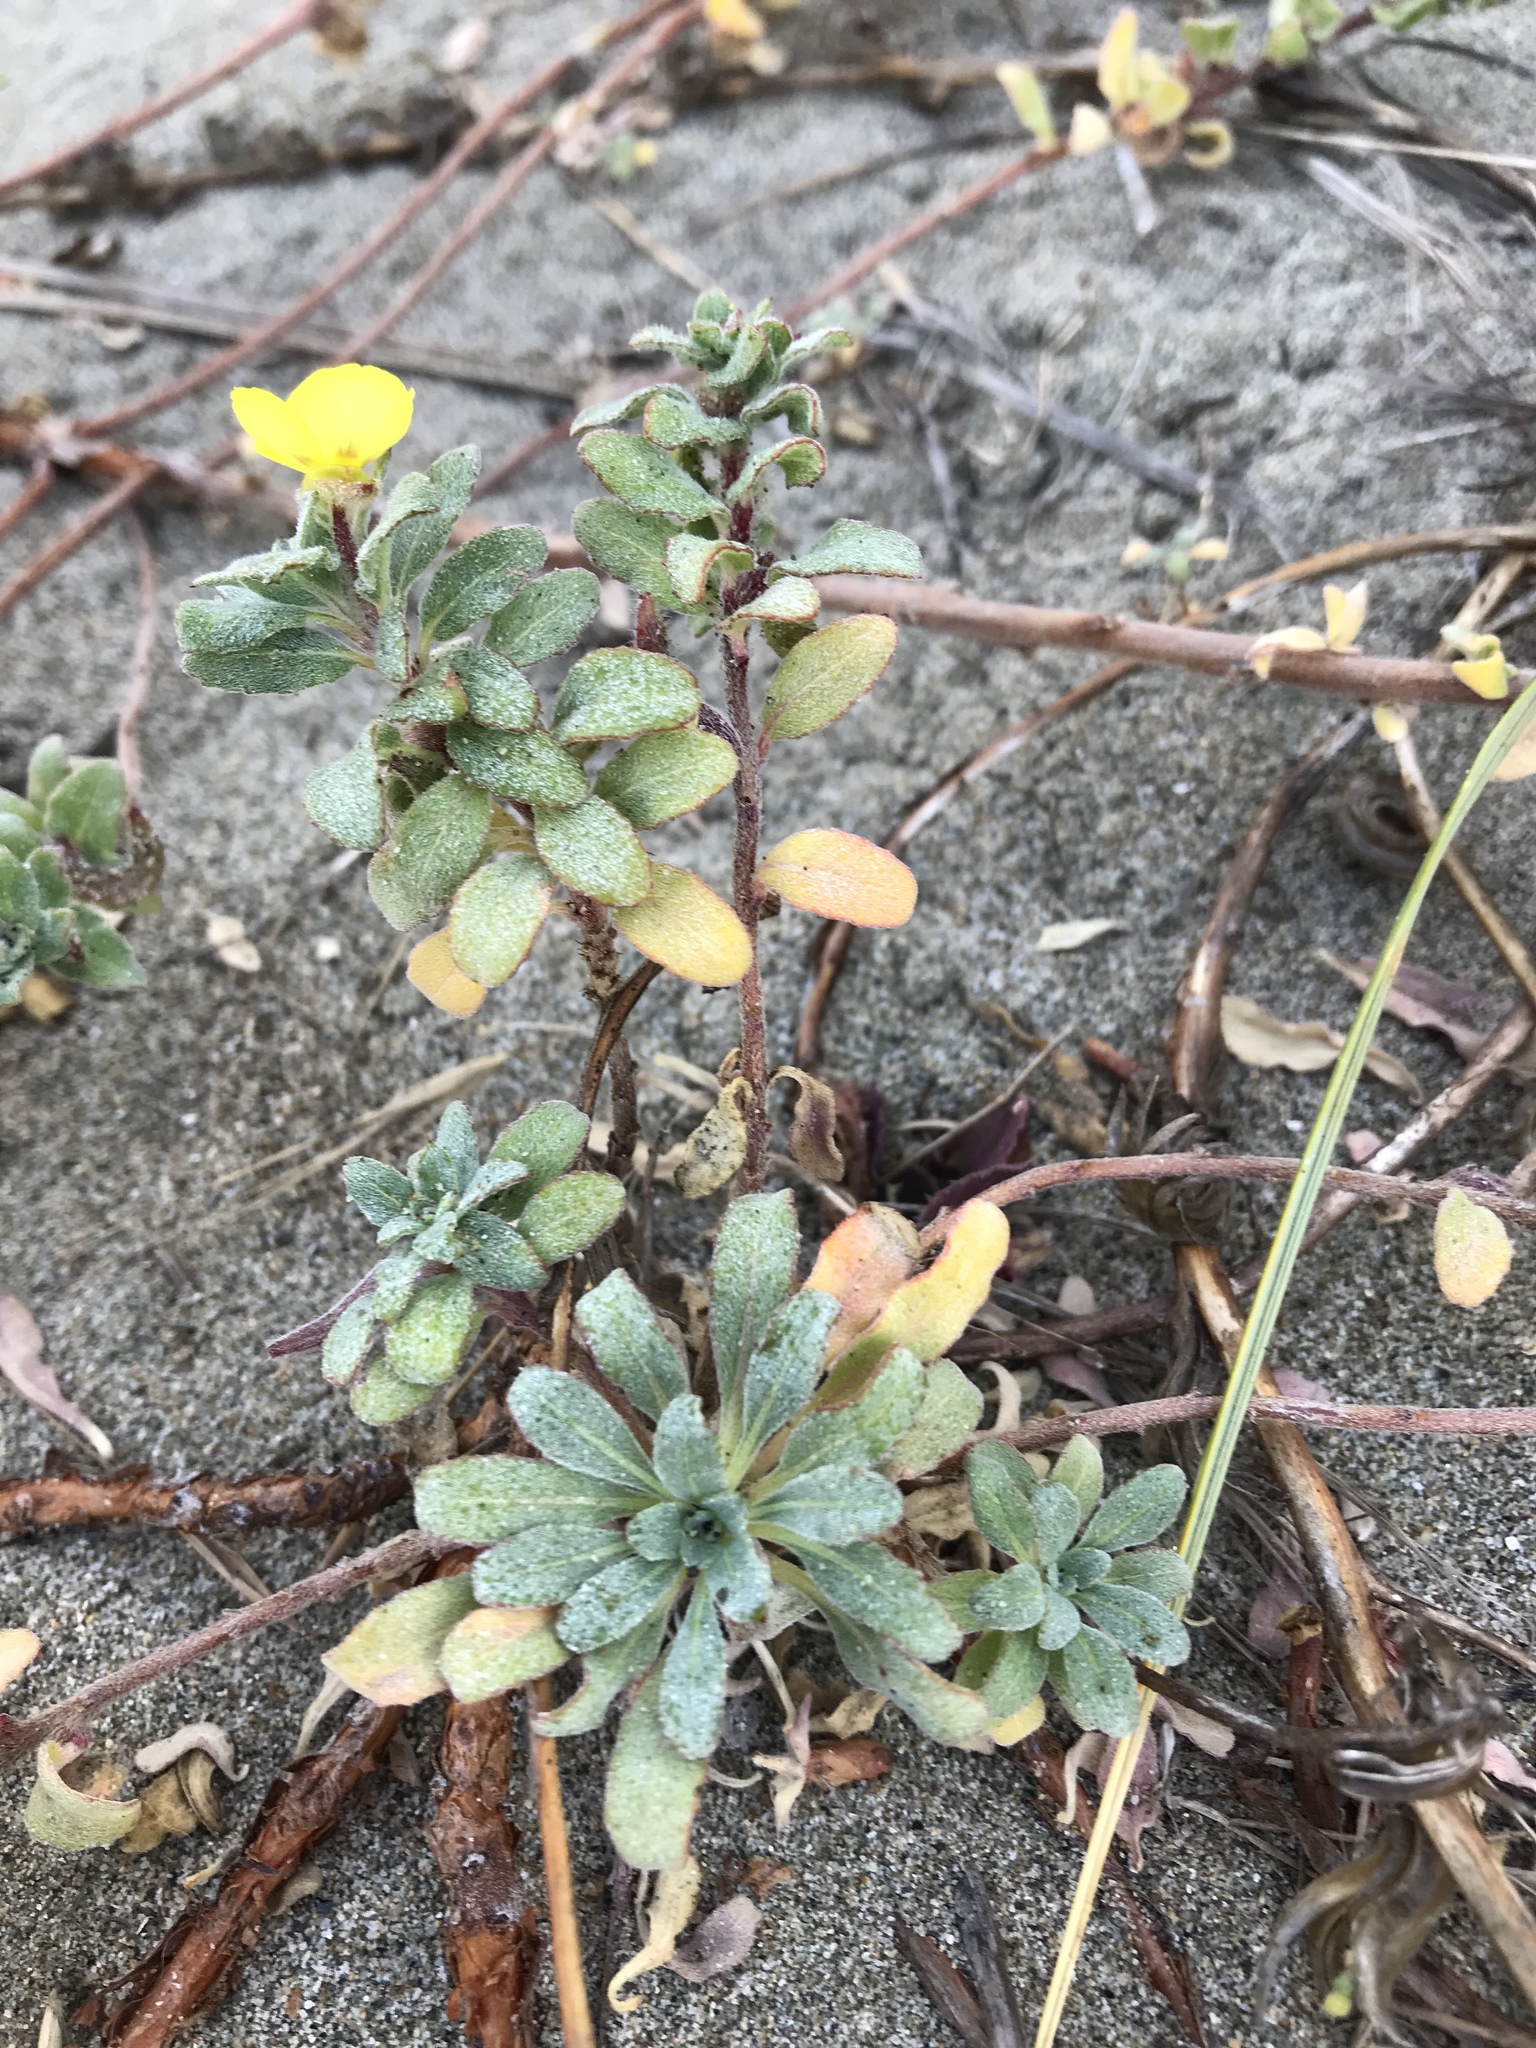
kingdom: Plantae
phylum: Tracheophyta
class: Magnoliopsida
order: Myrtales
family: Onagraceae
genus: Camissoniopsis
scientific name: Camissoniopsis cheiranthifolia
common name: Beach suncup
